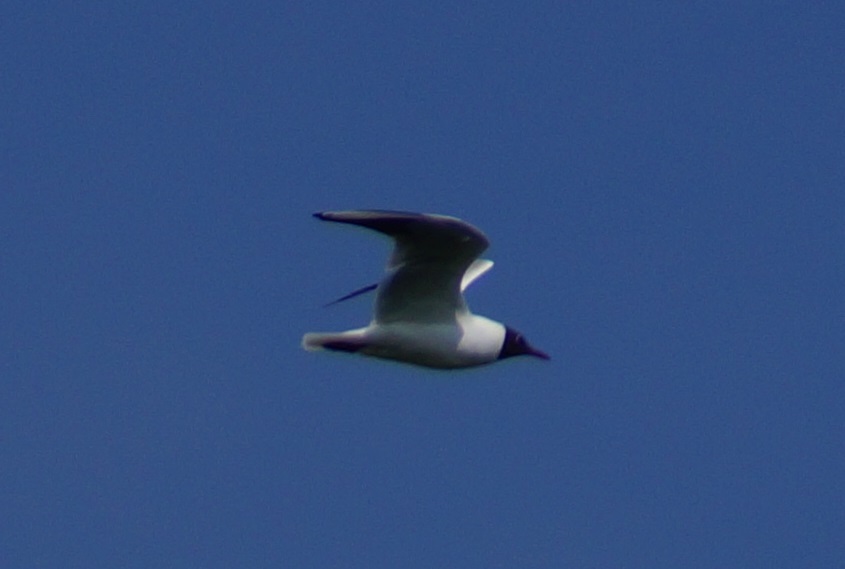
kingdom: Animalia
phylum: Chordata
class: Aves
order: Charadriiformes
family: Laridae
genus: Chroicocephalus
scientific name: Chroicocephalus ridibundus
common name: Black-headed gull
